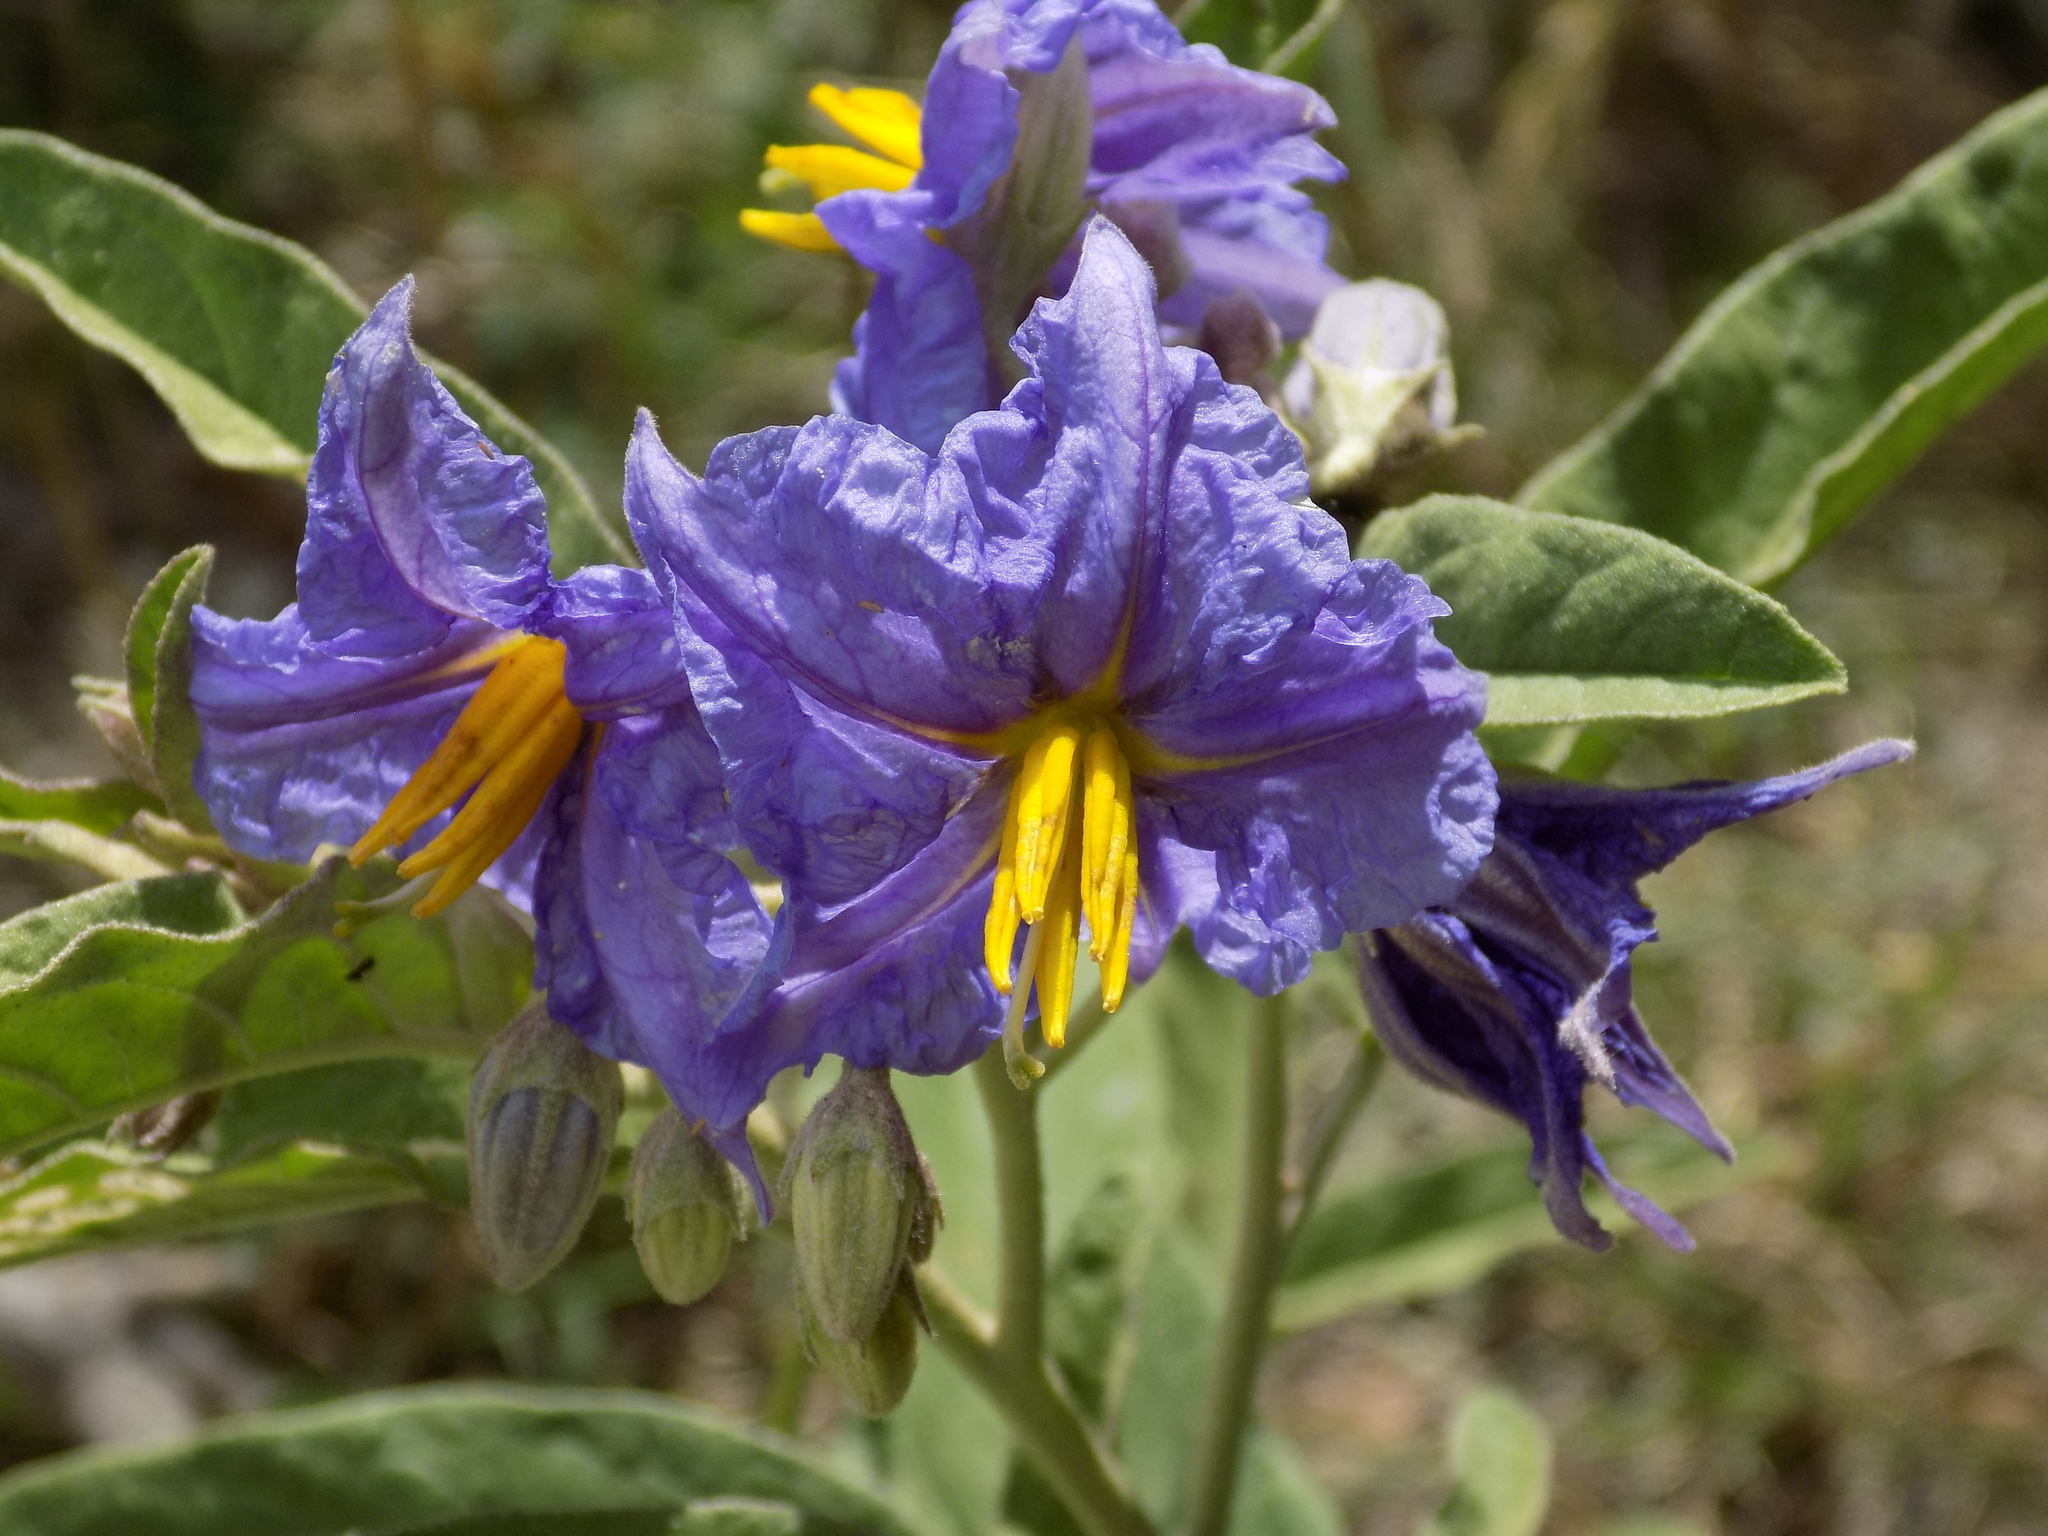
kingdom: Plantae
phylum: Tracheophyta
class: Magnoliopsida
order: Solanales
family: Solanaceae
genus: Solanum
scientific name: Solanum elaeagnifolium
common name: Silverleaf nightshade
